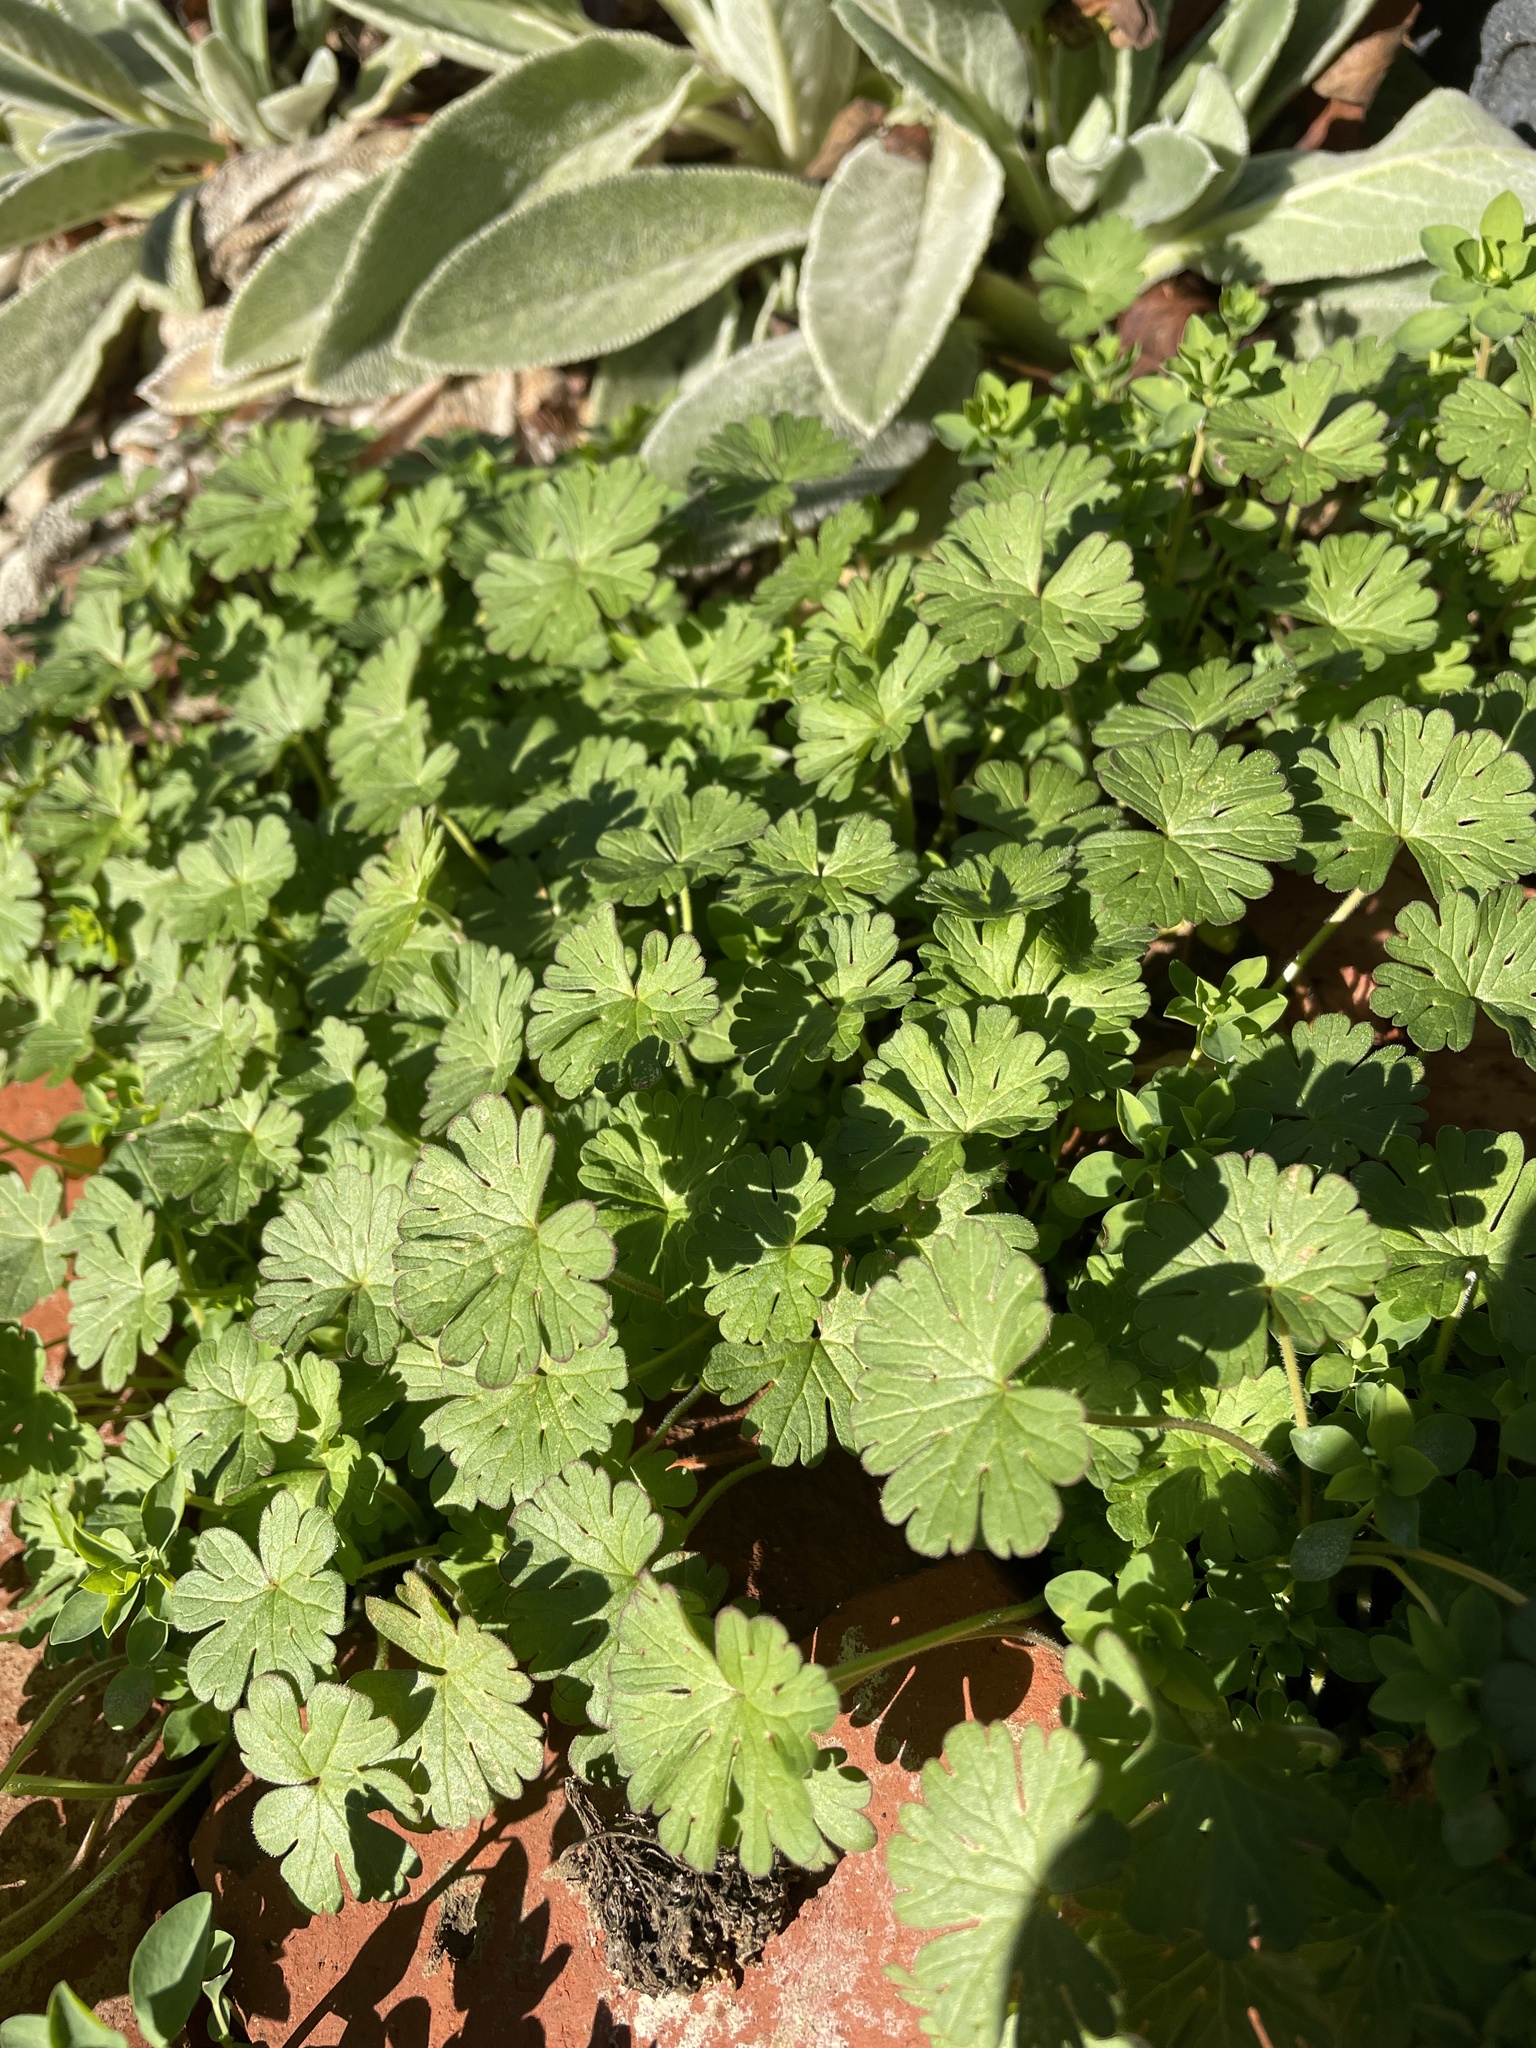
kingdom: Plantae
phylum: Tracheophyta
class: Magnoliopsida
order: Geraniales
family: Geraniaceae
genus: Geranium
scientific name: Geranium
